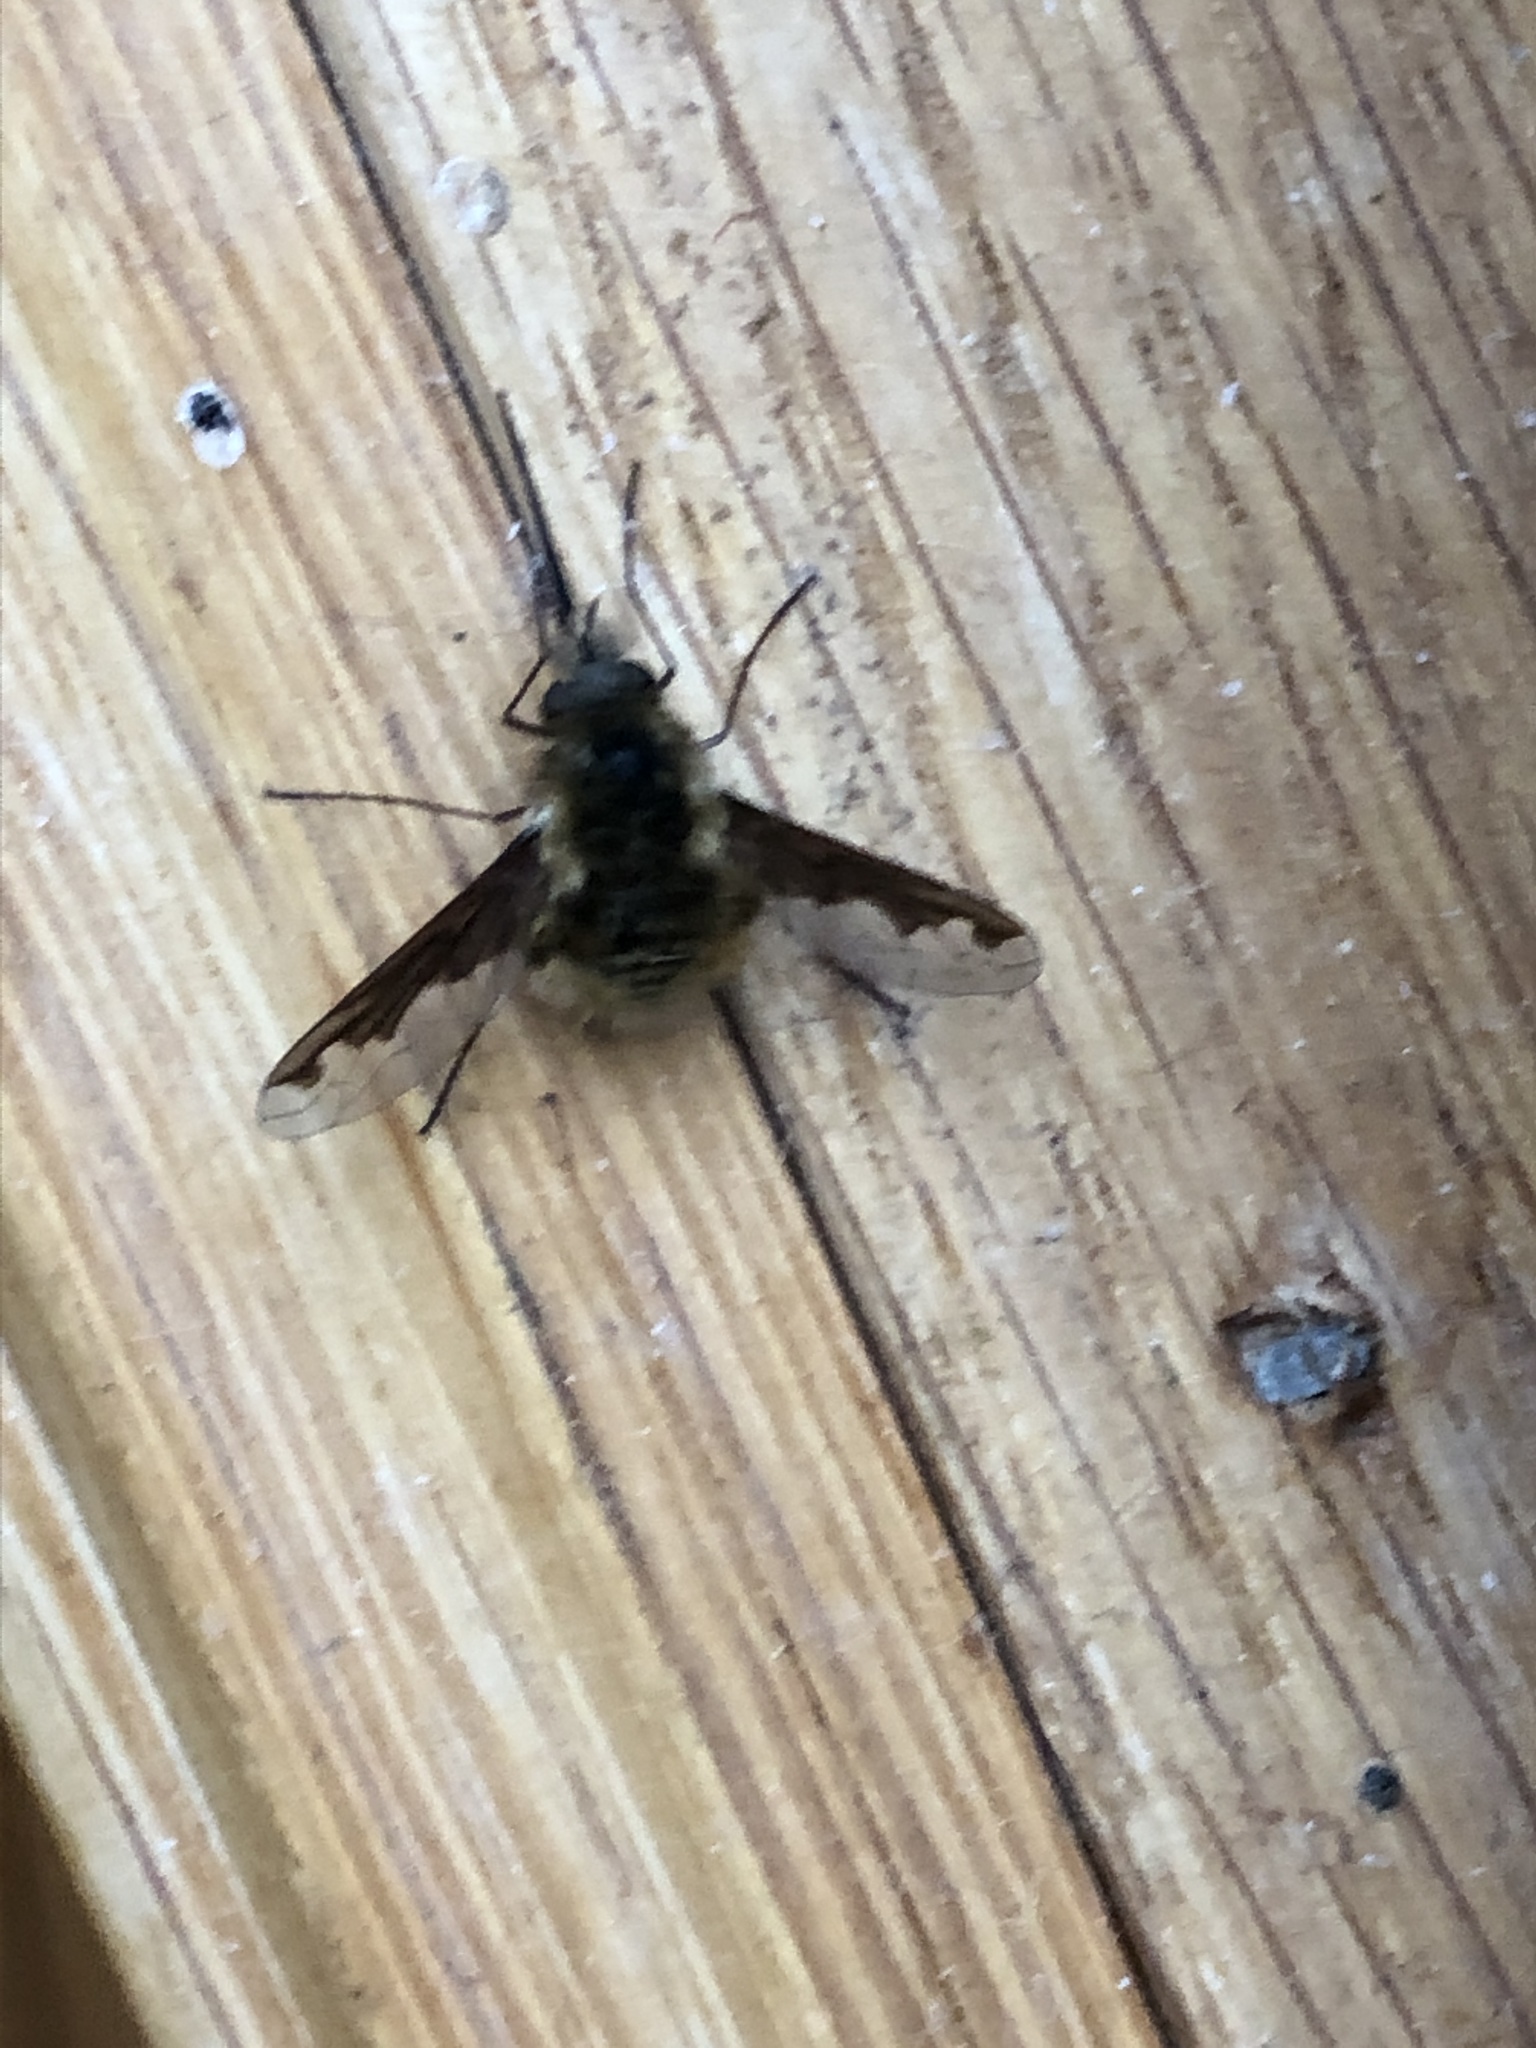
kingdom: Animalia
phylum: Arthropoda
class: Insecta
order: Diptera
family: Bombyliidae
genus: Bombylius
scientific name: Bombylius major
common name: Bee fly
